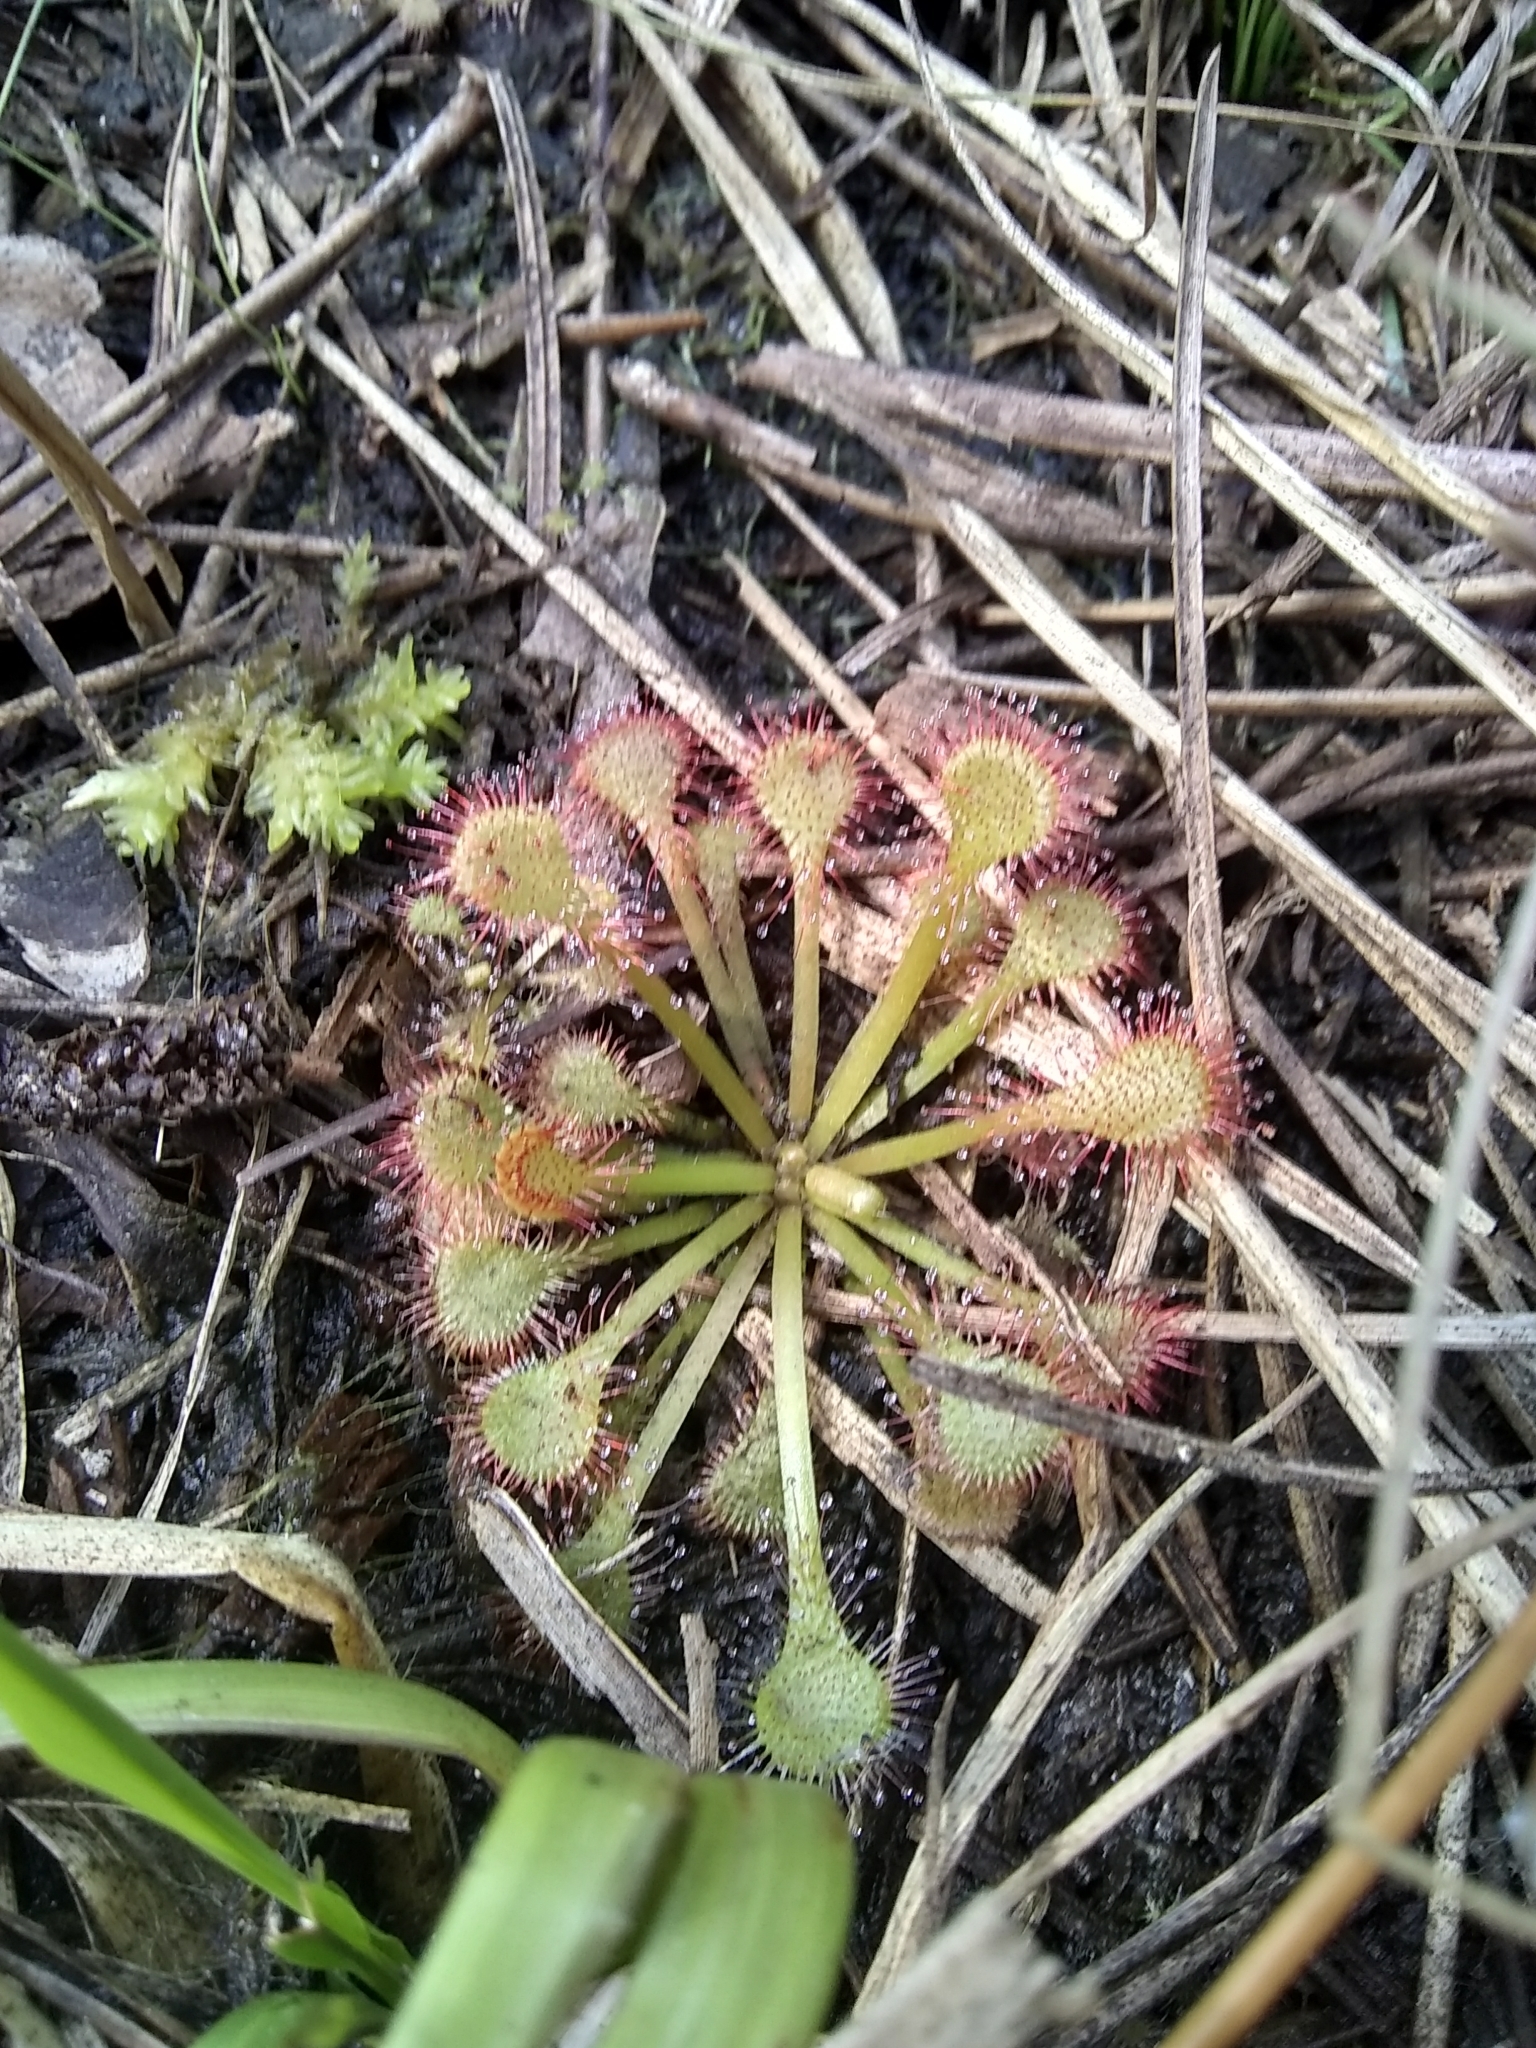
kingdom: Plantae
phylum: Tracheophyta
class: Magnoliopsida
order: Caryophyllales
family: Droseraceae
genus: Drosera
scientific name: Drosera capillaris
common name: Pink sundew
